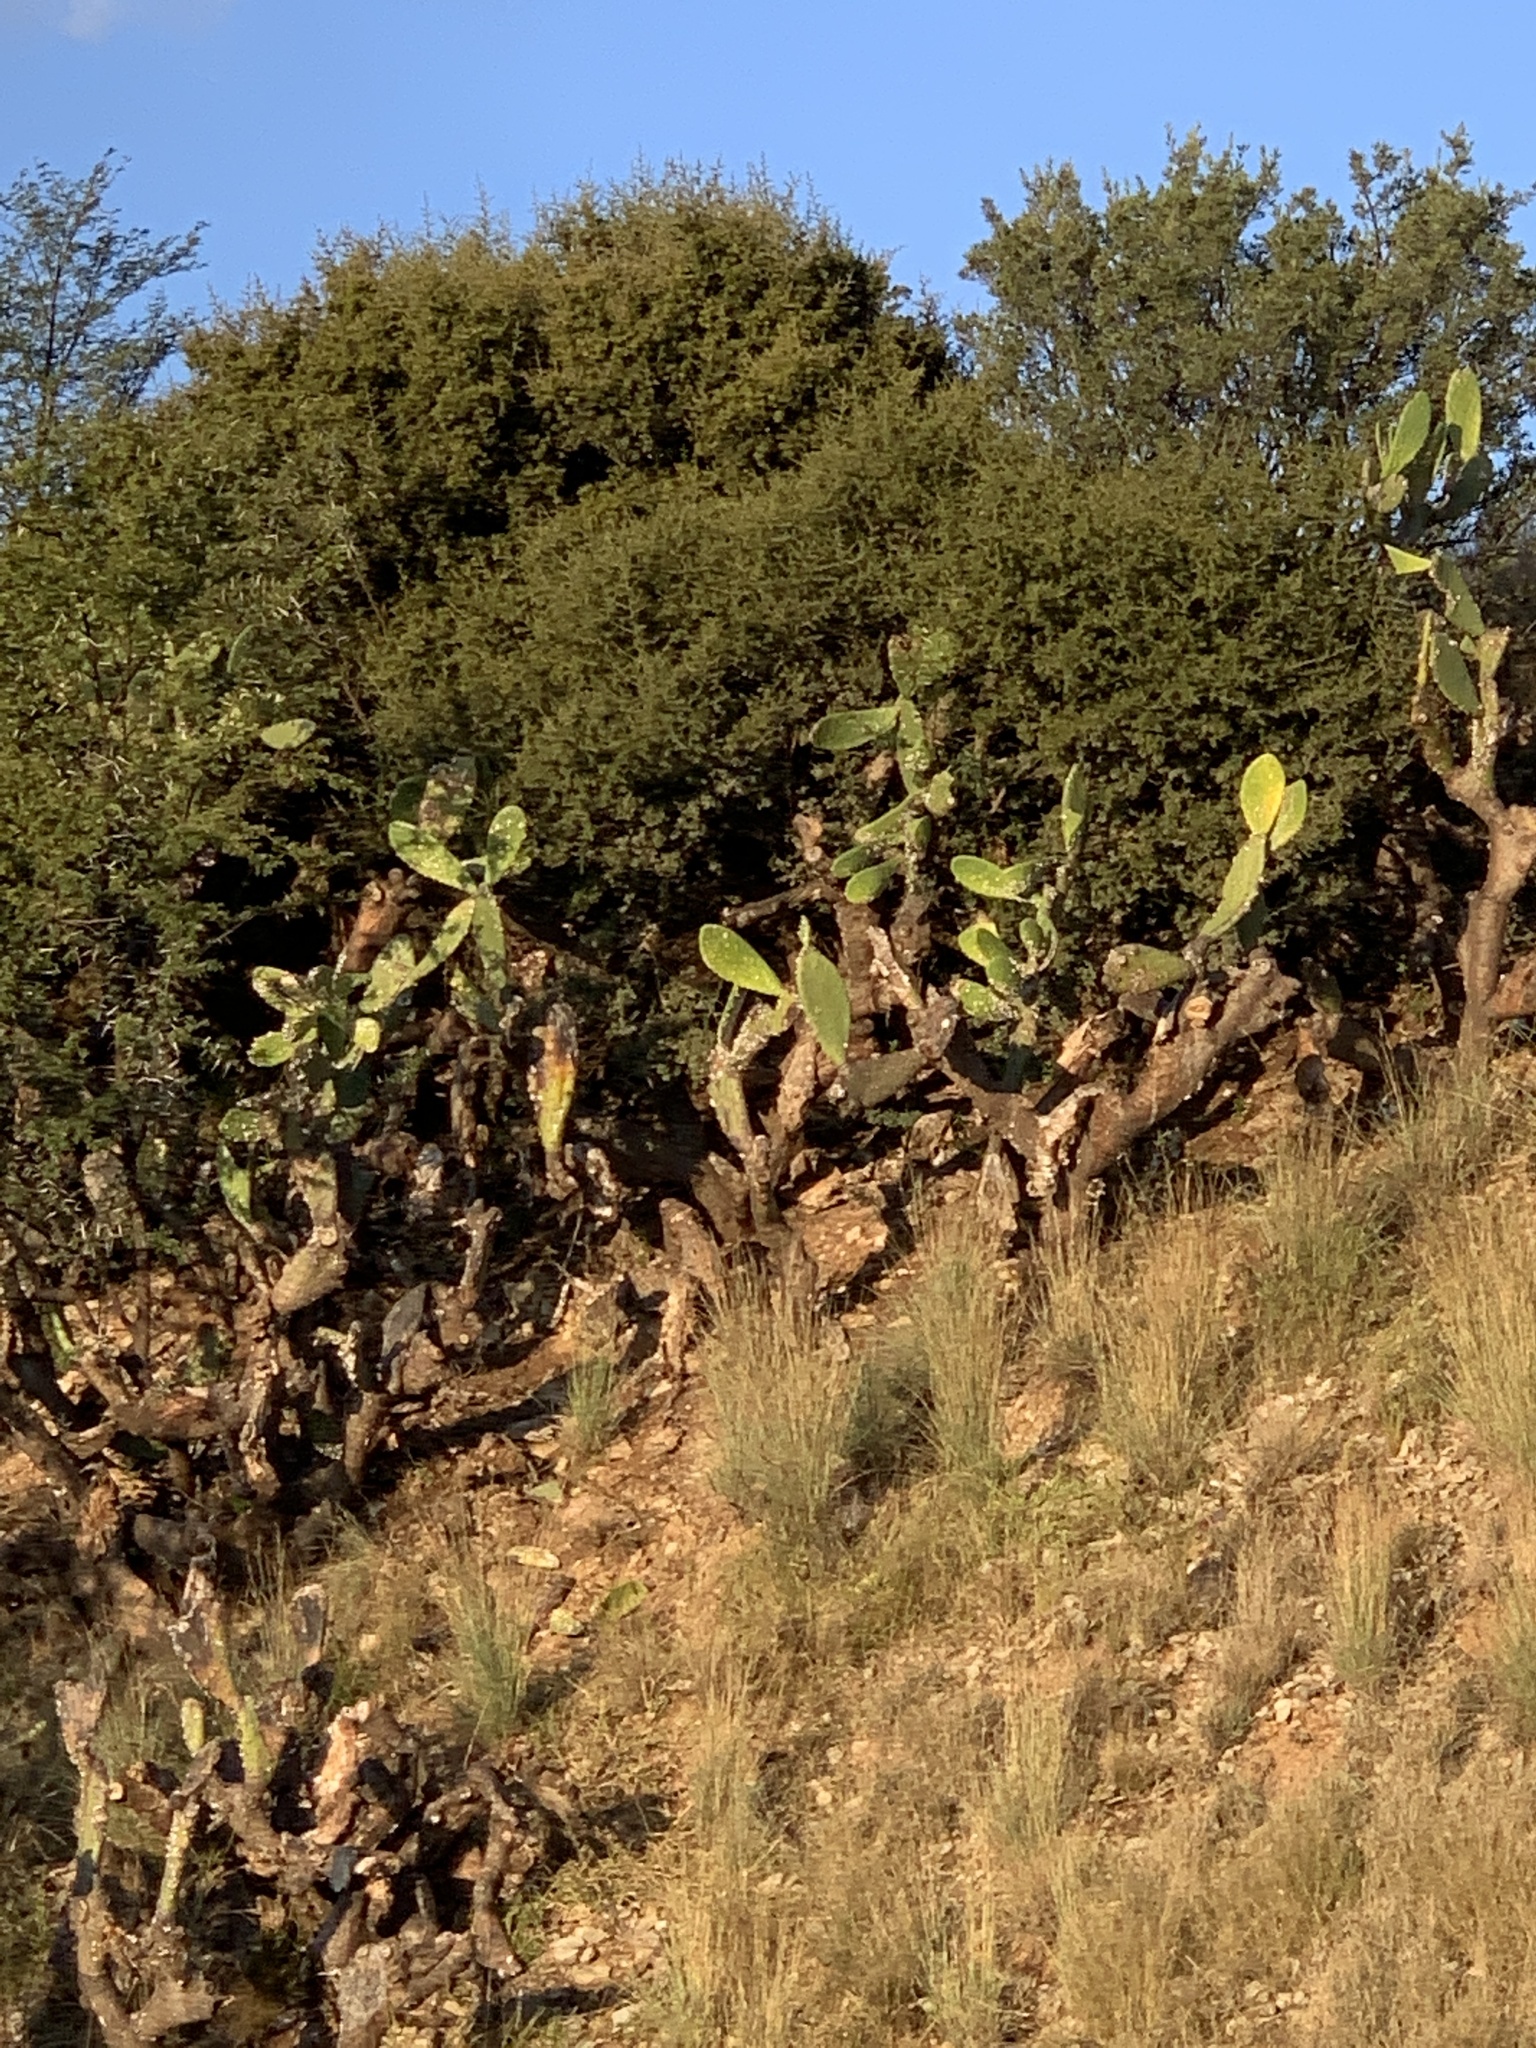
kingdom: Plantae
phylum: Tracheophyta
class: Magnoliopsida
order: Caryophyllales
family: Cactaceae
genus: Opuntia
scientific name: Opuntia ficus-indica
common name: Barbary fig
